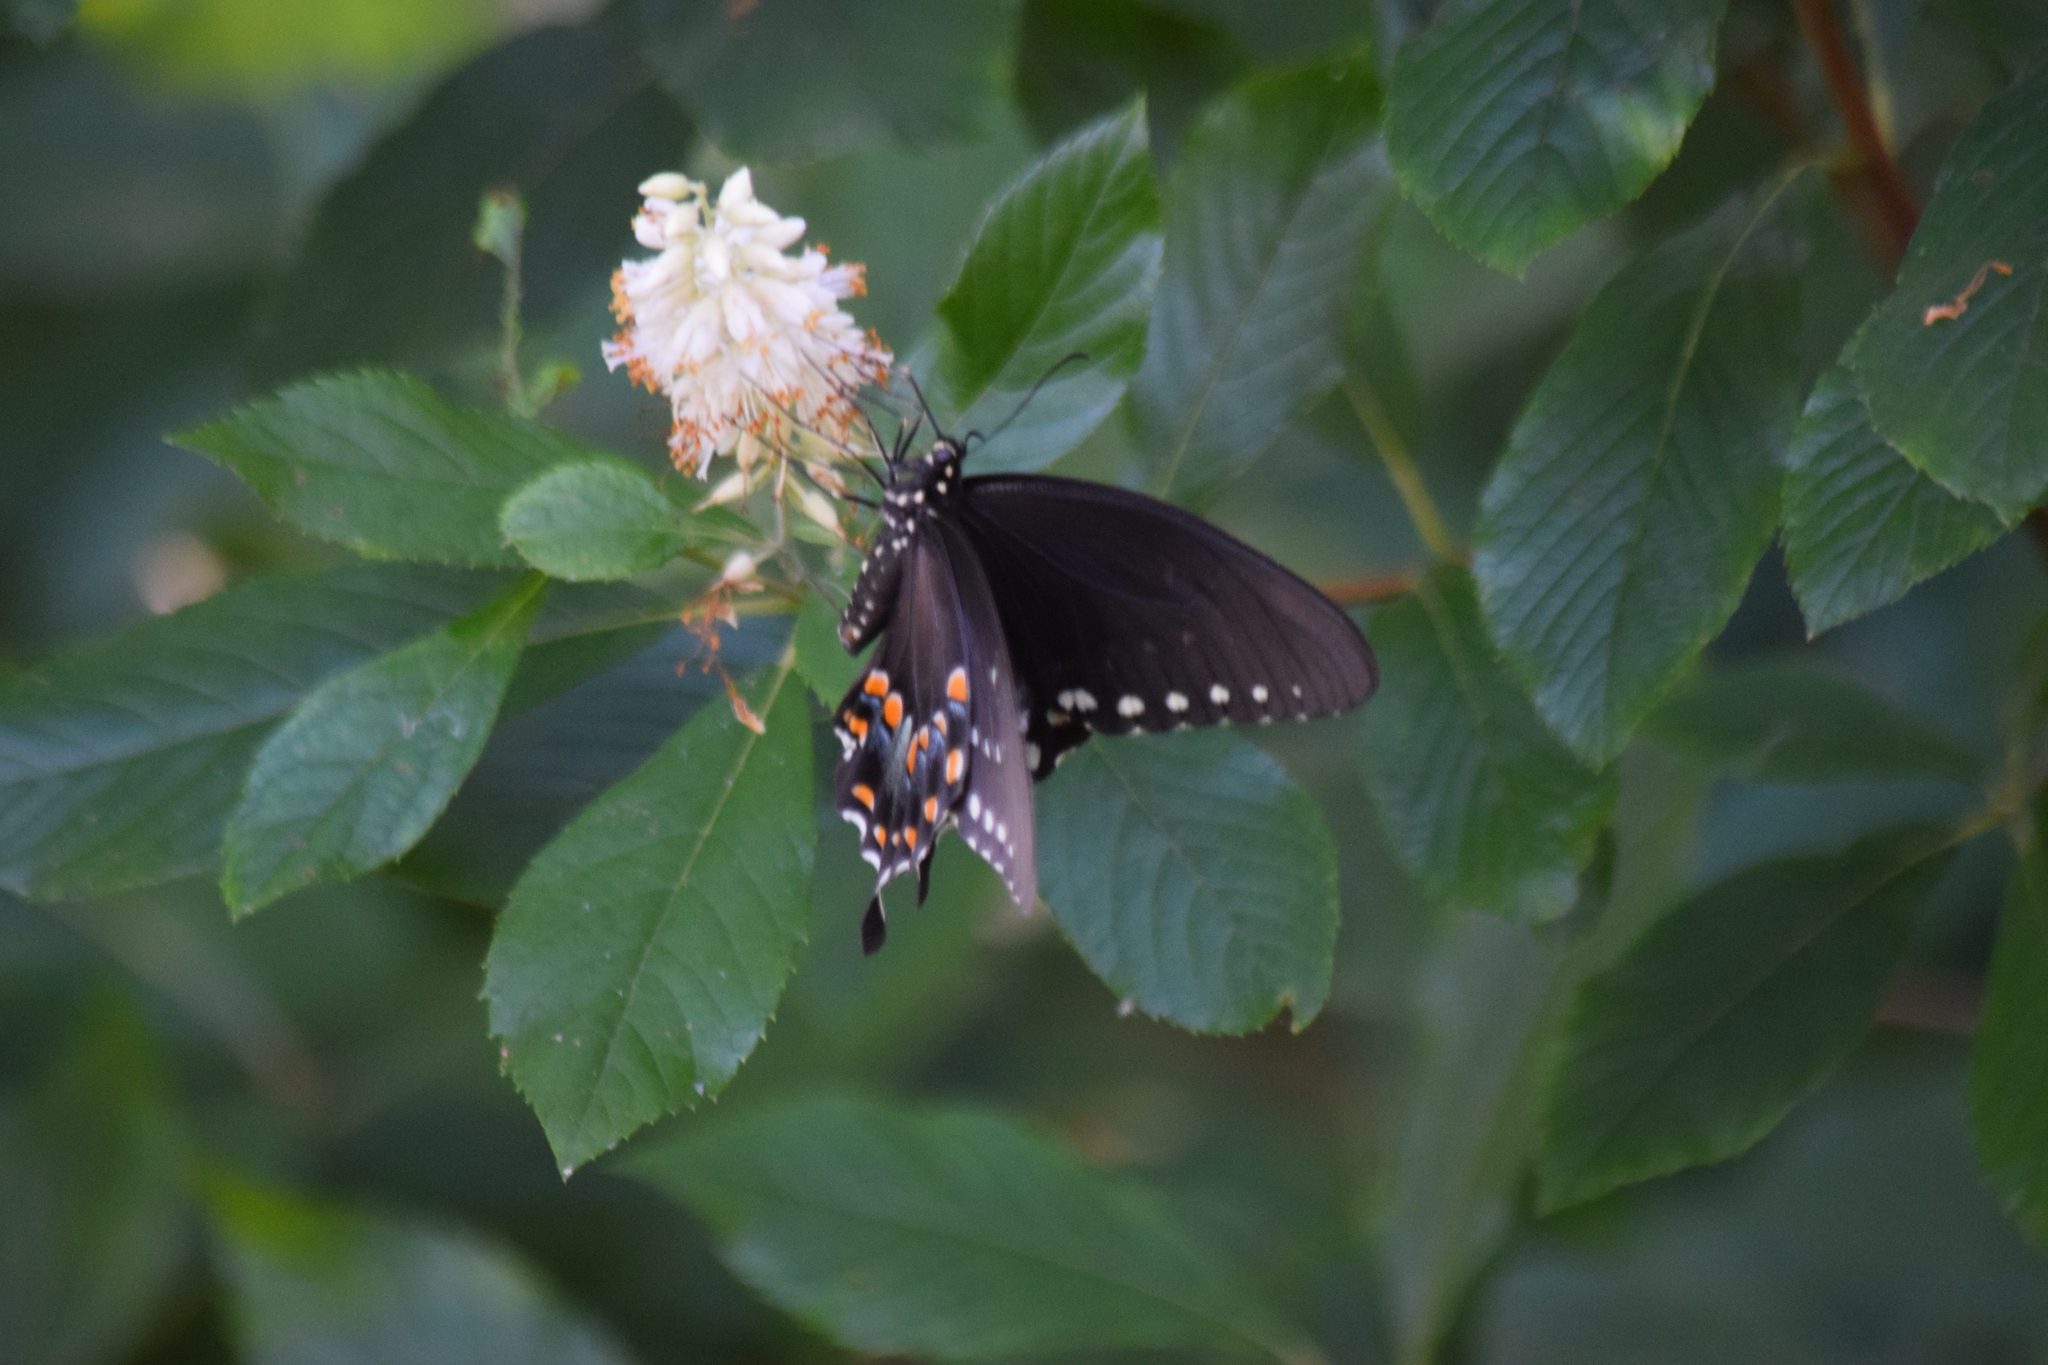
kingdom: Animalia
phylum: Arthropoda
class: Insecta
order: Lepidoptera
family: Papilionidae
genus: Papilio
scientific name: Papilio troilus
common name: Spicebush swallowtail
